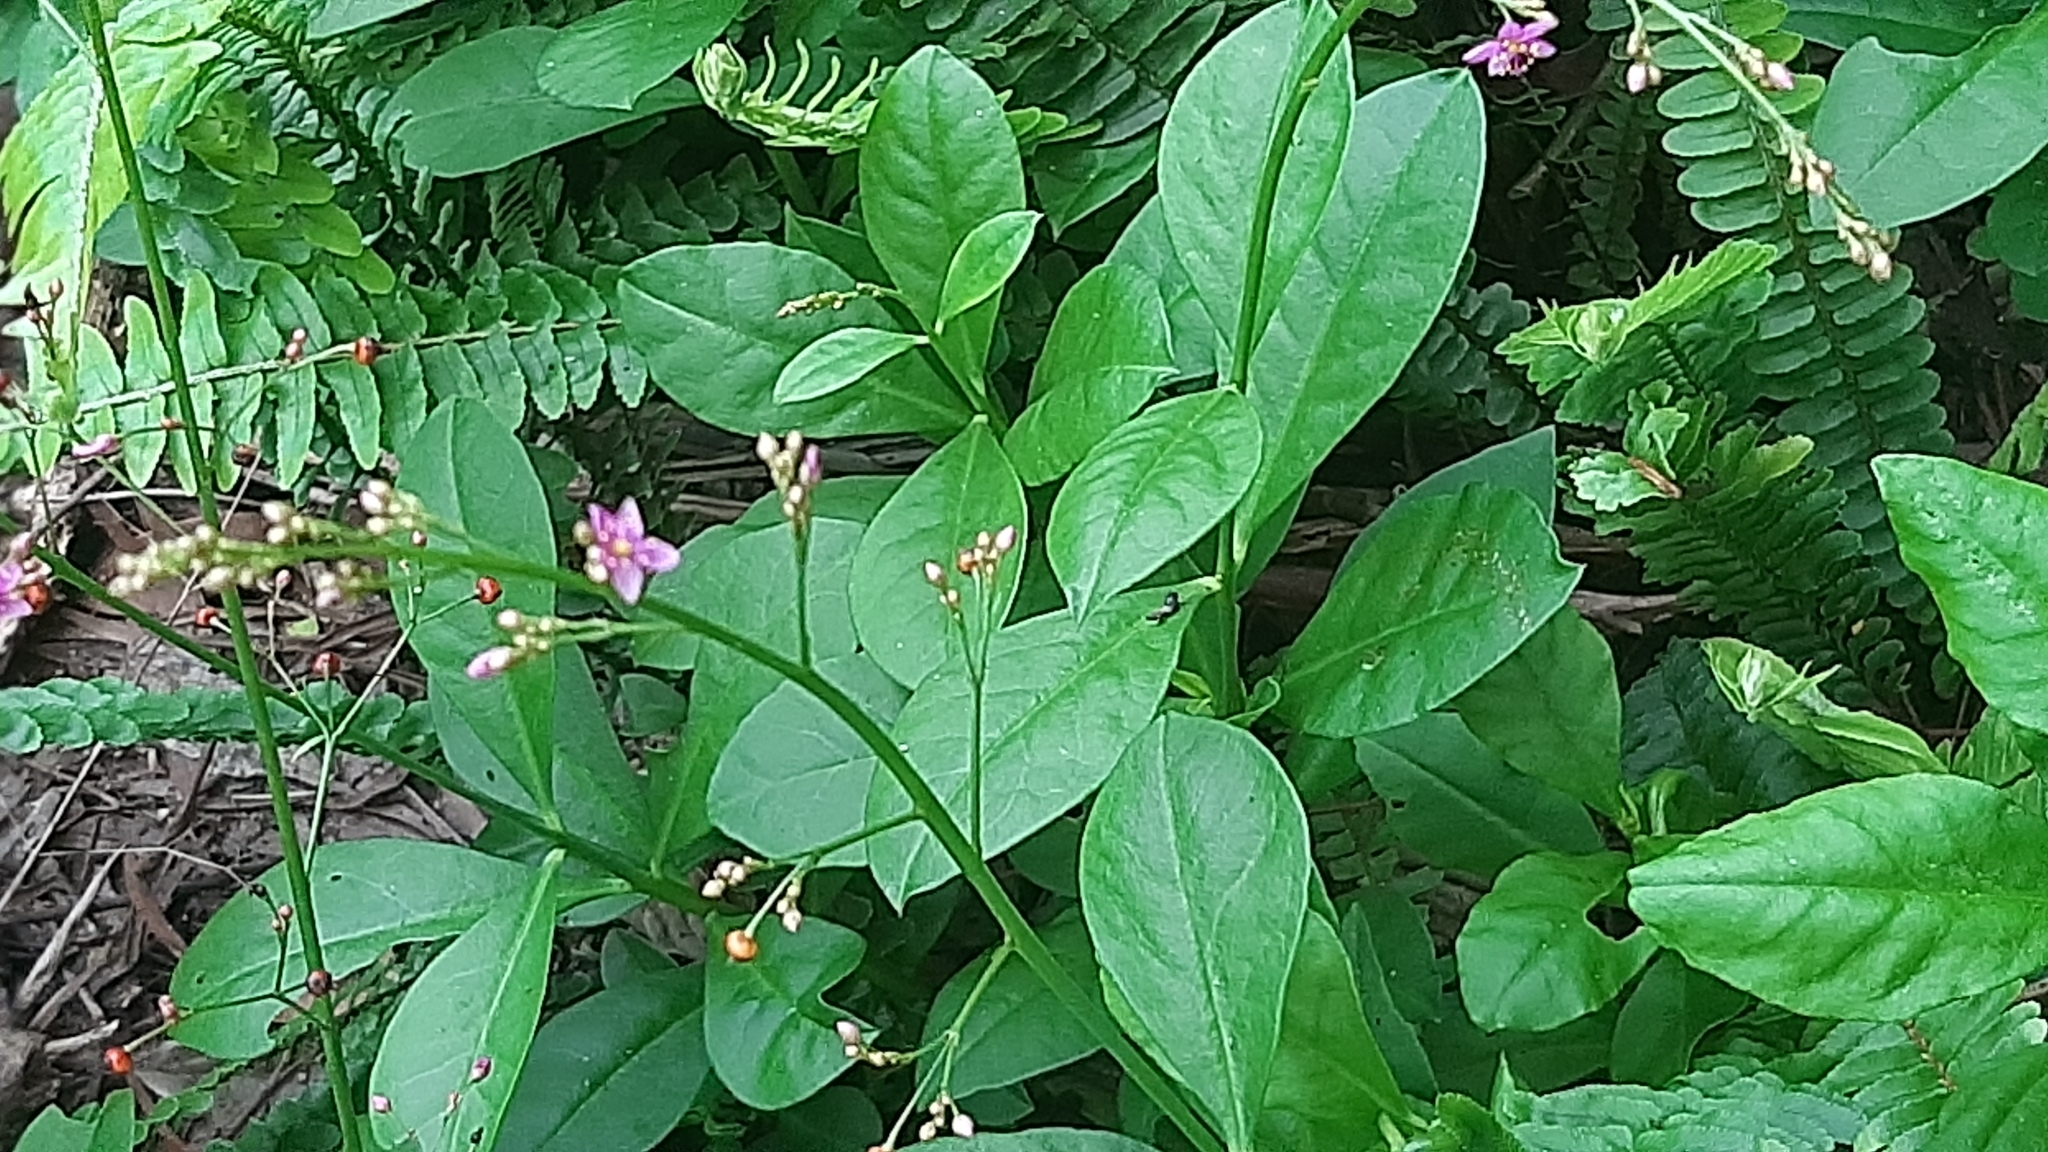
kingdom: Plantae
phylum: Tracheophyta
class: Magnoliopsida
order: Caryophyllales
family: Talinaceae
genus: Talinum
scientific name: Talinum paniculatum
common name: Jewels of opar
